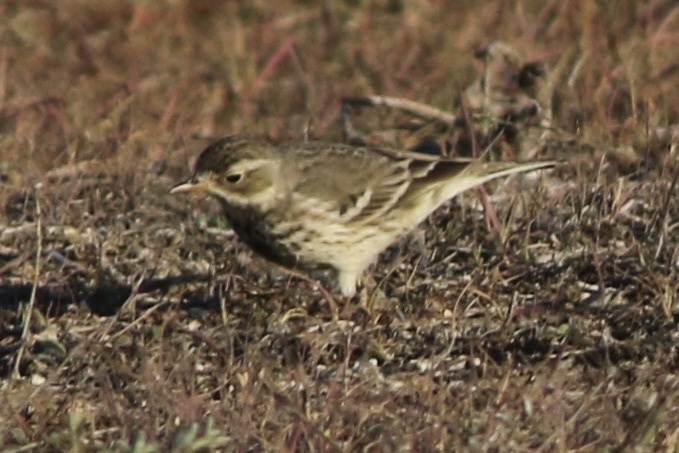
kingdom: Animalia
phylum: Chordata
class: Aves
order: Passeriformes
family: Motacillidae
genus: Anthus
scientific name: Anthus rubescens
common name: Buff-bellied pipit
